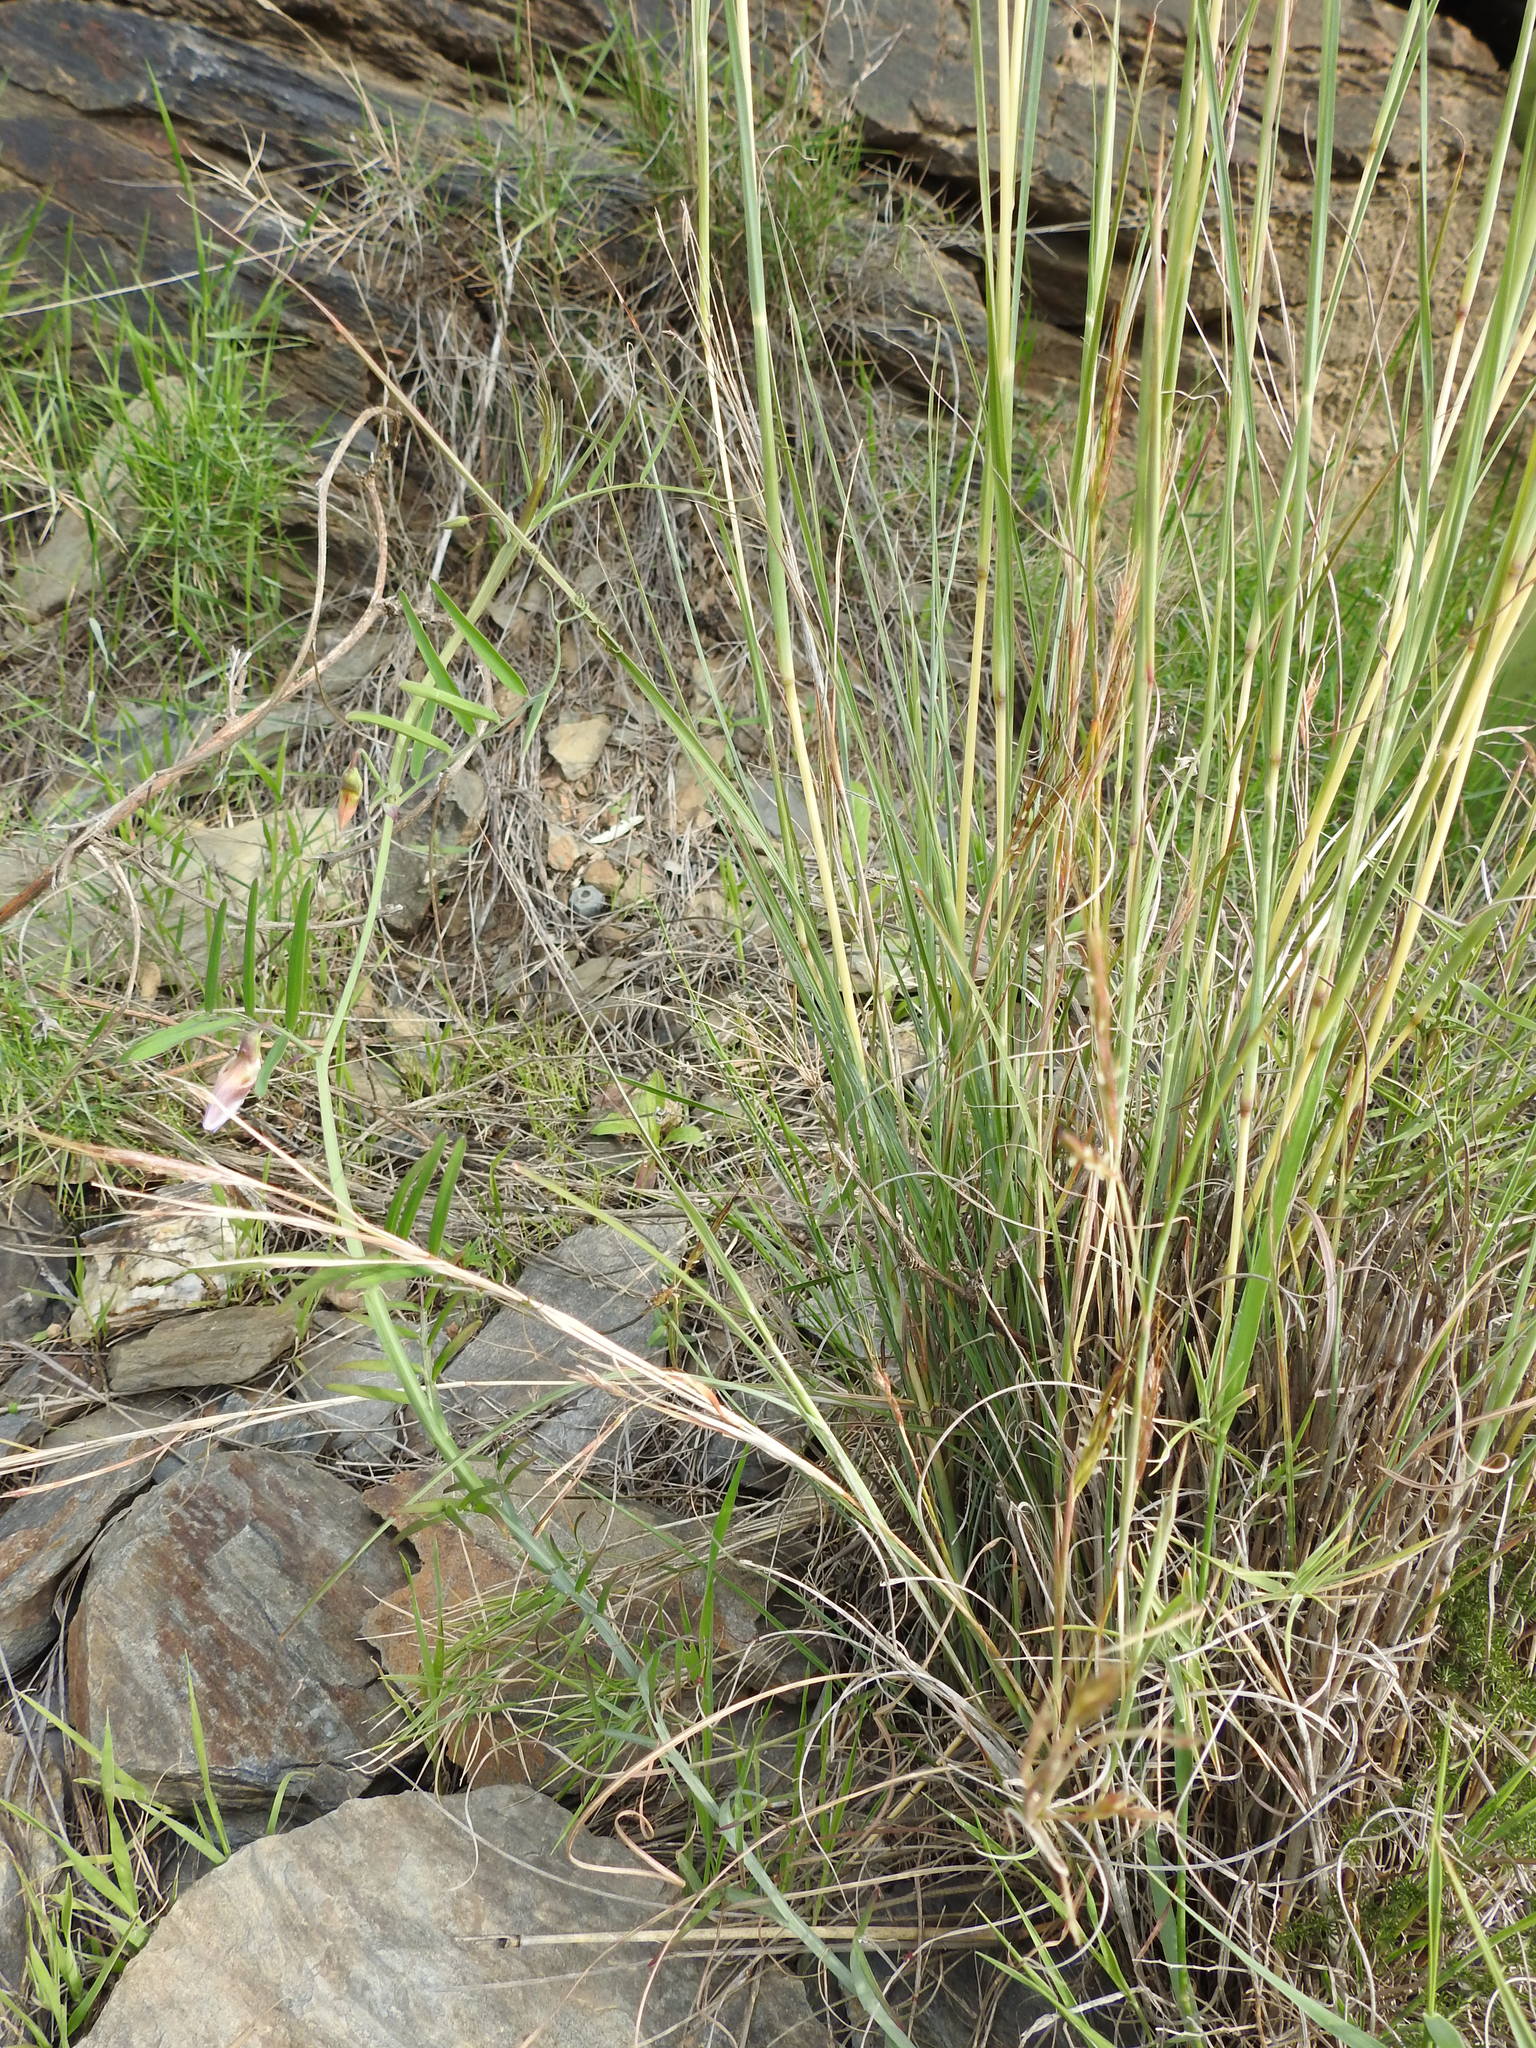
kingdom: Plantae
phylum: Tracheophyta
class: Liliopsida
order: Poales
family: Poaceae
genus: Hyparrhenia
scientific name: Hyparrhenia hirta
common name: Thatching grass
